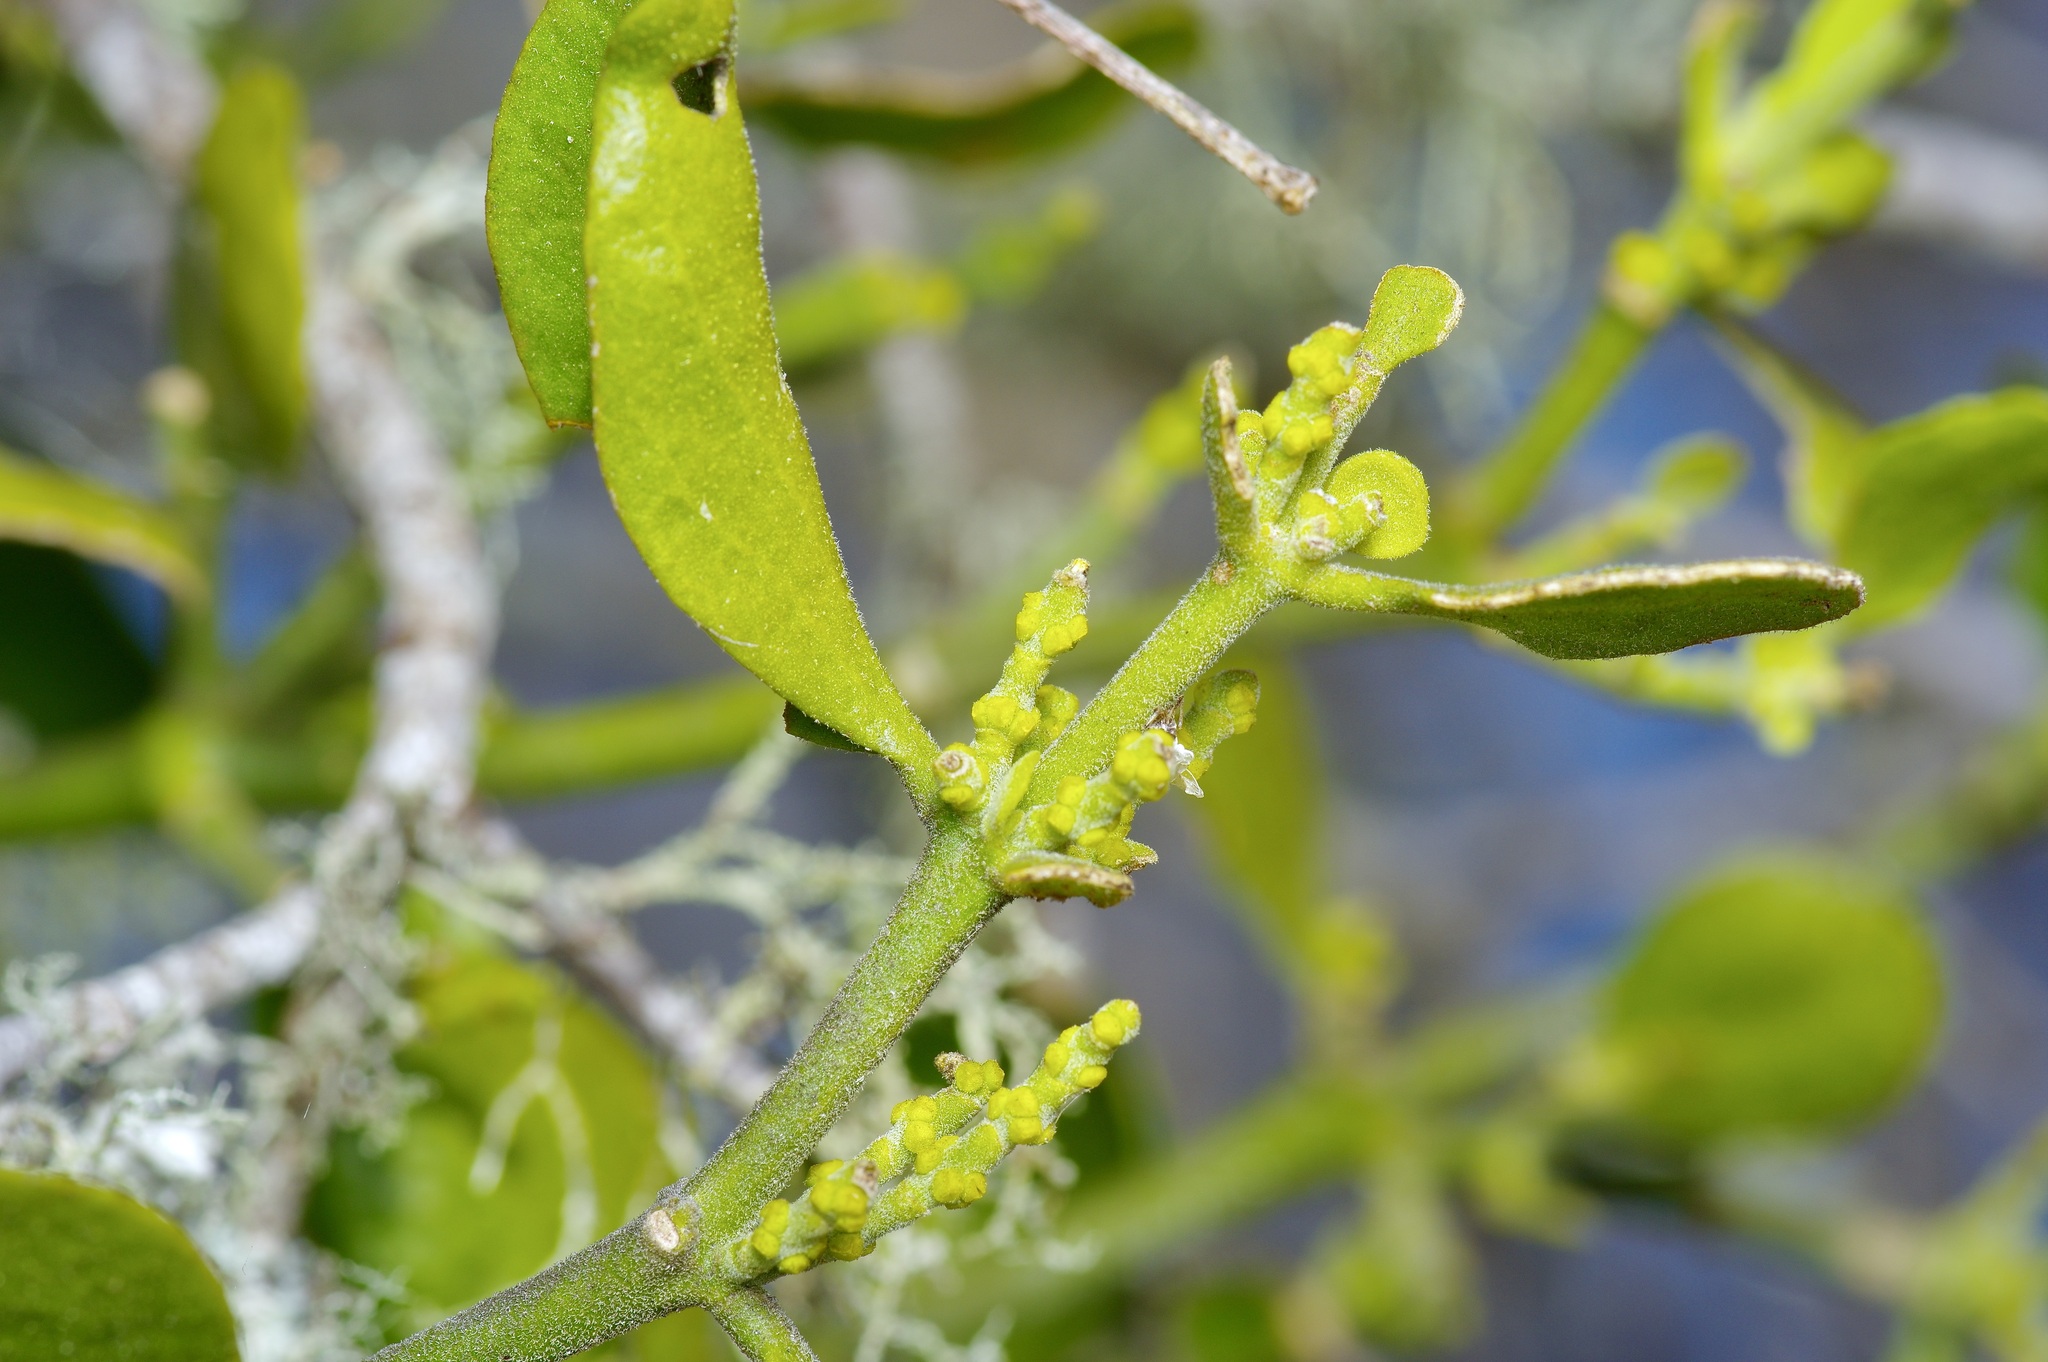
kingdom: Plantae
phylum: Tracheophyta
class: Magnoliopsida
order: Santalales
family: Viscaceae
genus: Phoradendron
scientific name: Phoradendron leucarpum
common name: Pacific mistletoe
